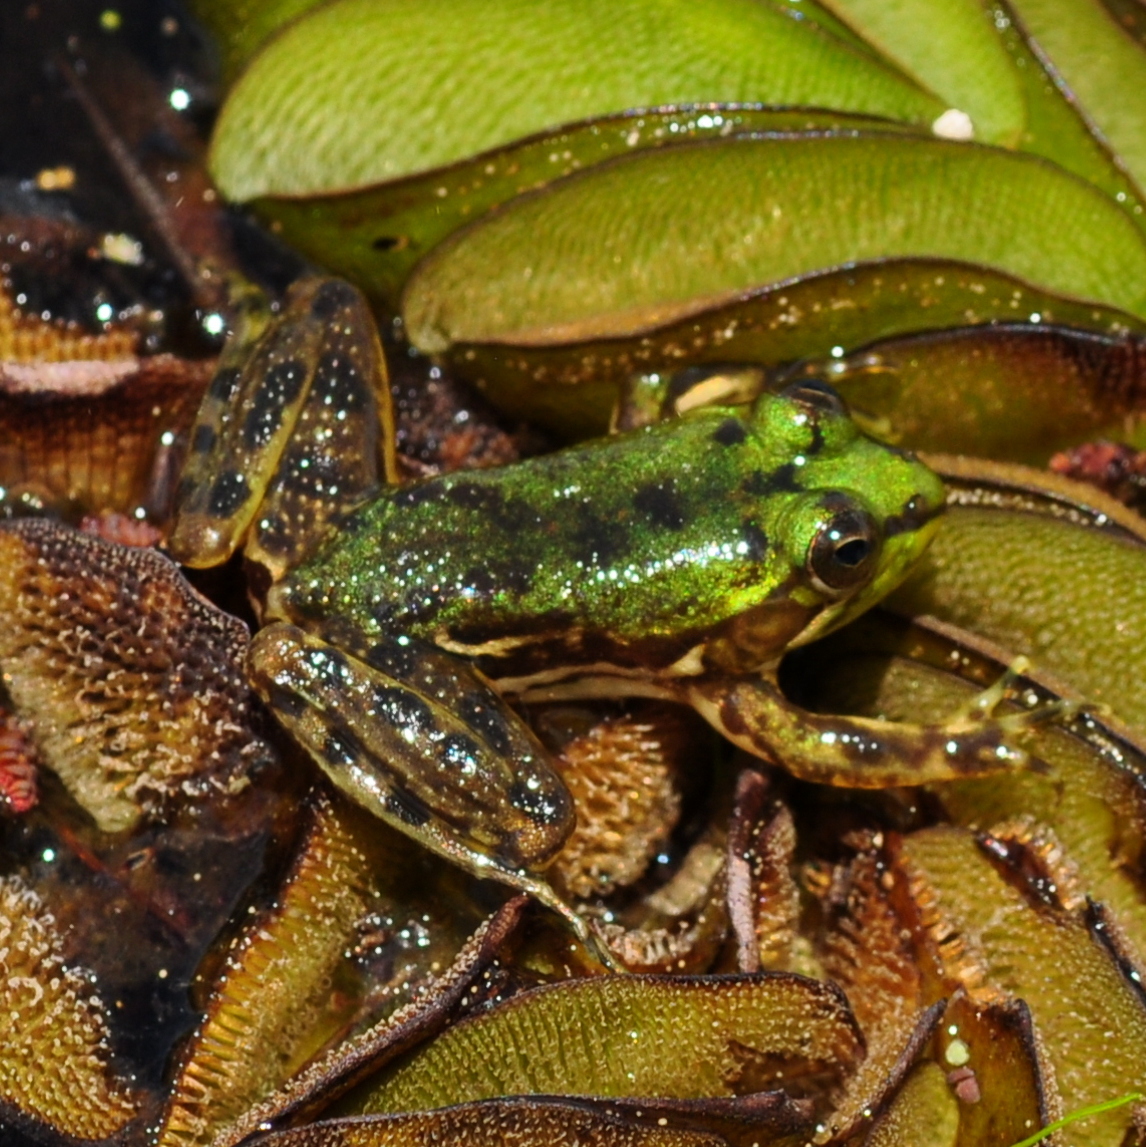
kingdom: Animalia
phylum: Chordata
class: Amphibia
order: Anura
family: Hylidae
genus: Pseudis
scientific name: Pseudis minuta
